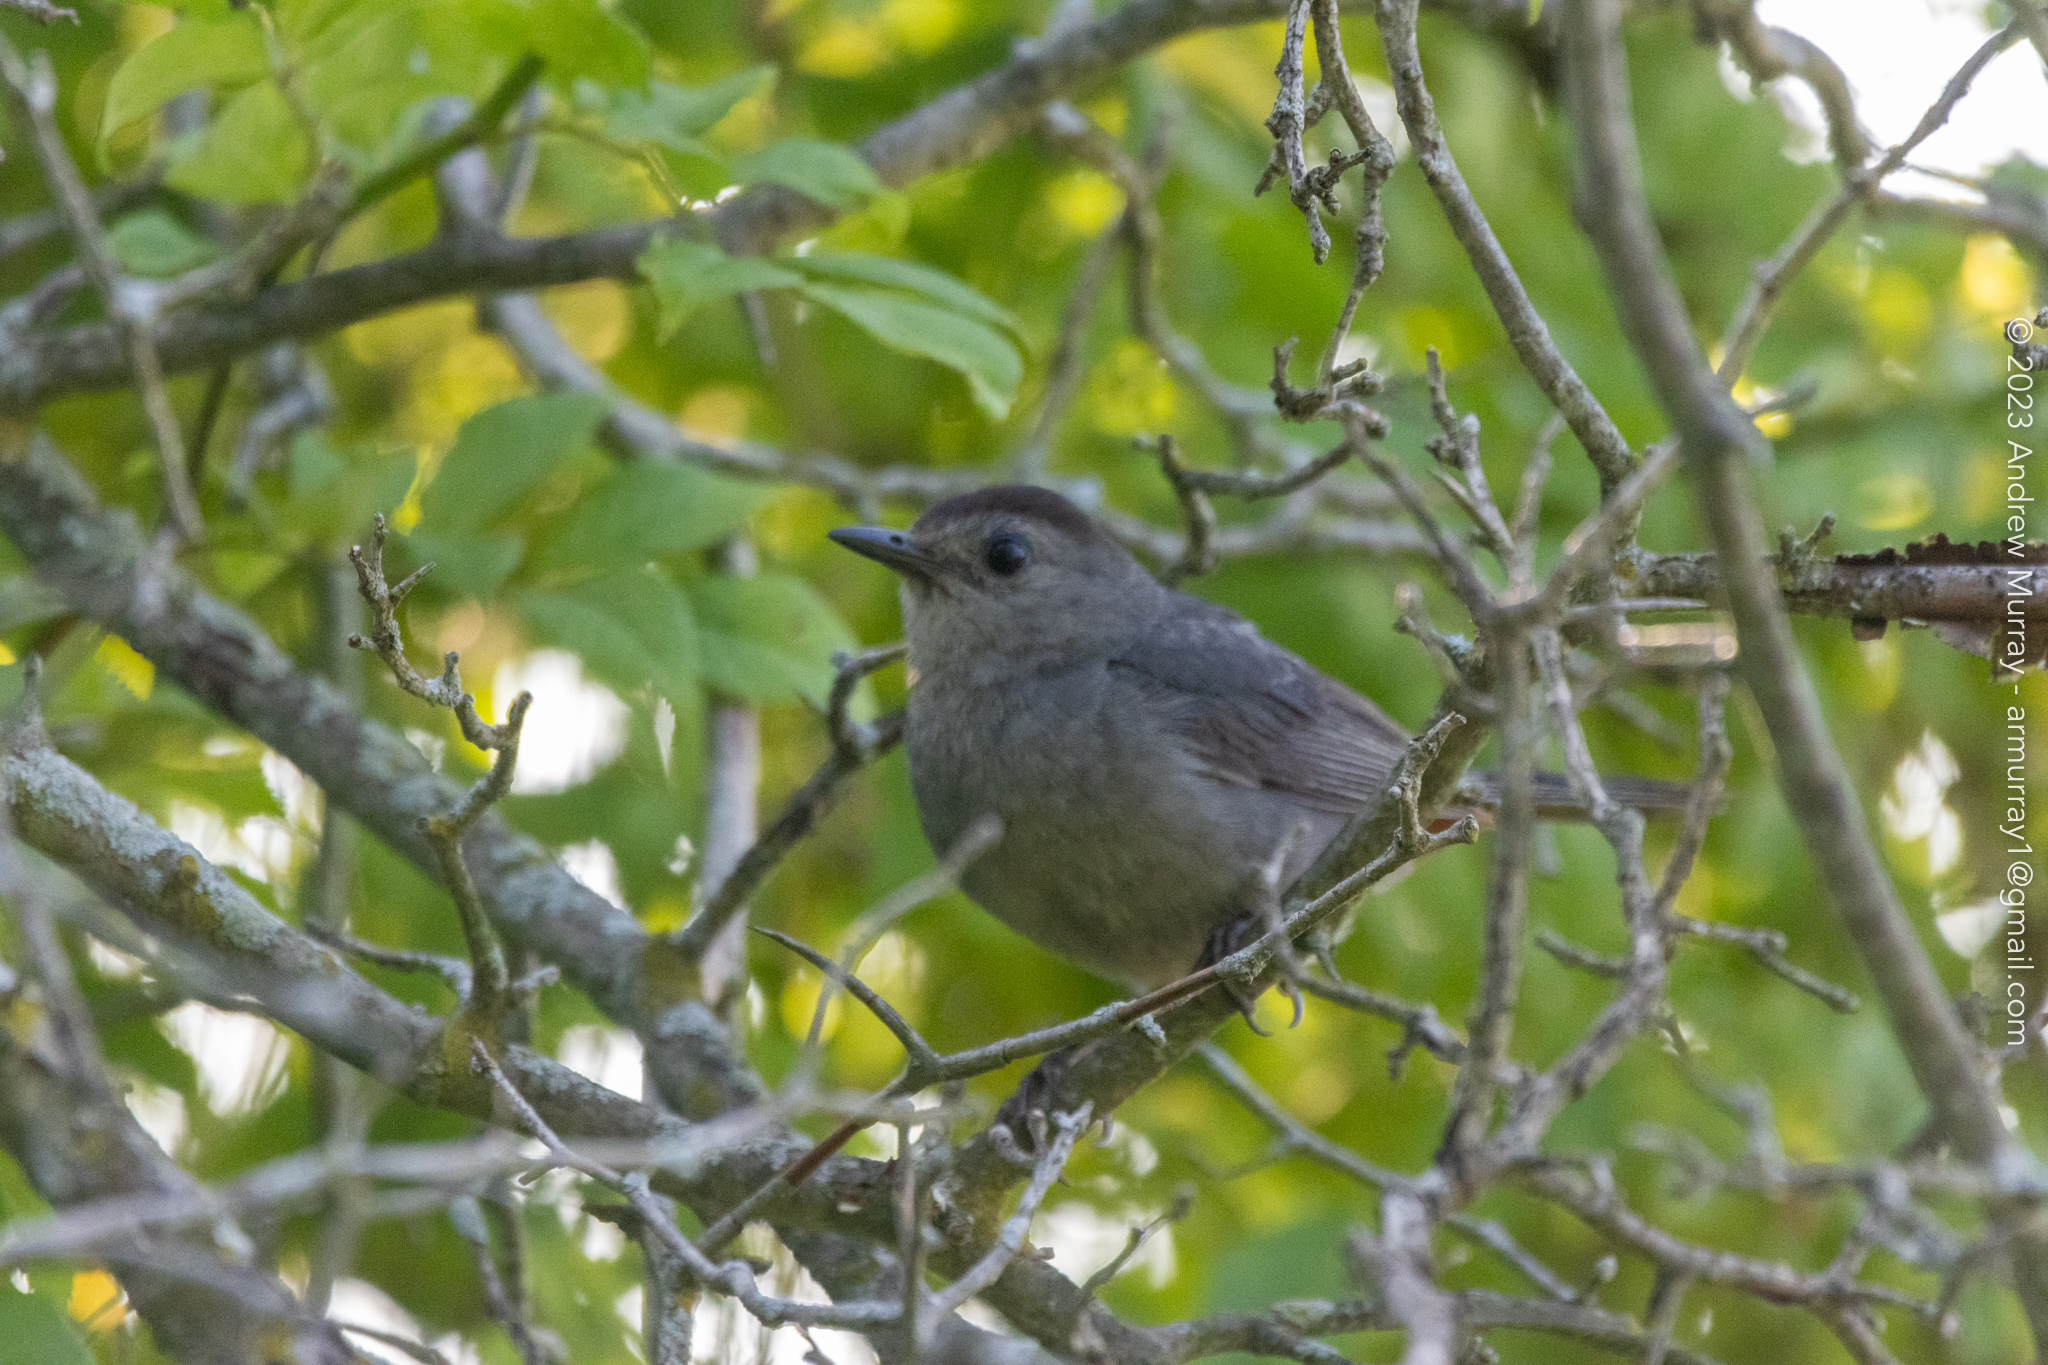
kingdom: Animalia
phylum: Chordata
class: Aves
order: Passeriformes
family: Mimidae
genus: Dumetella
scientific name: Dumetella carolinensis
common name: Gray catbird
